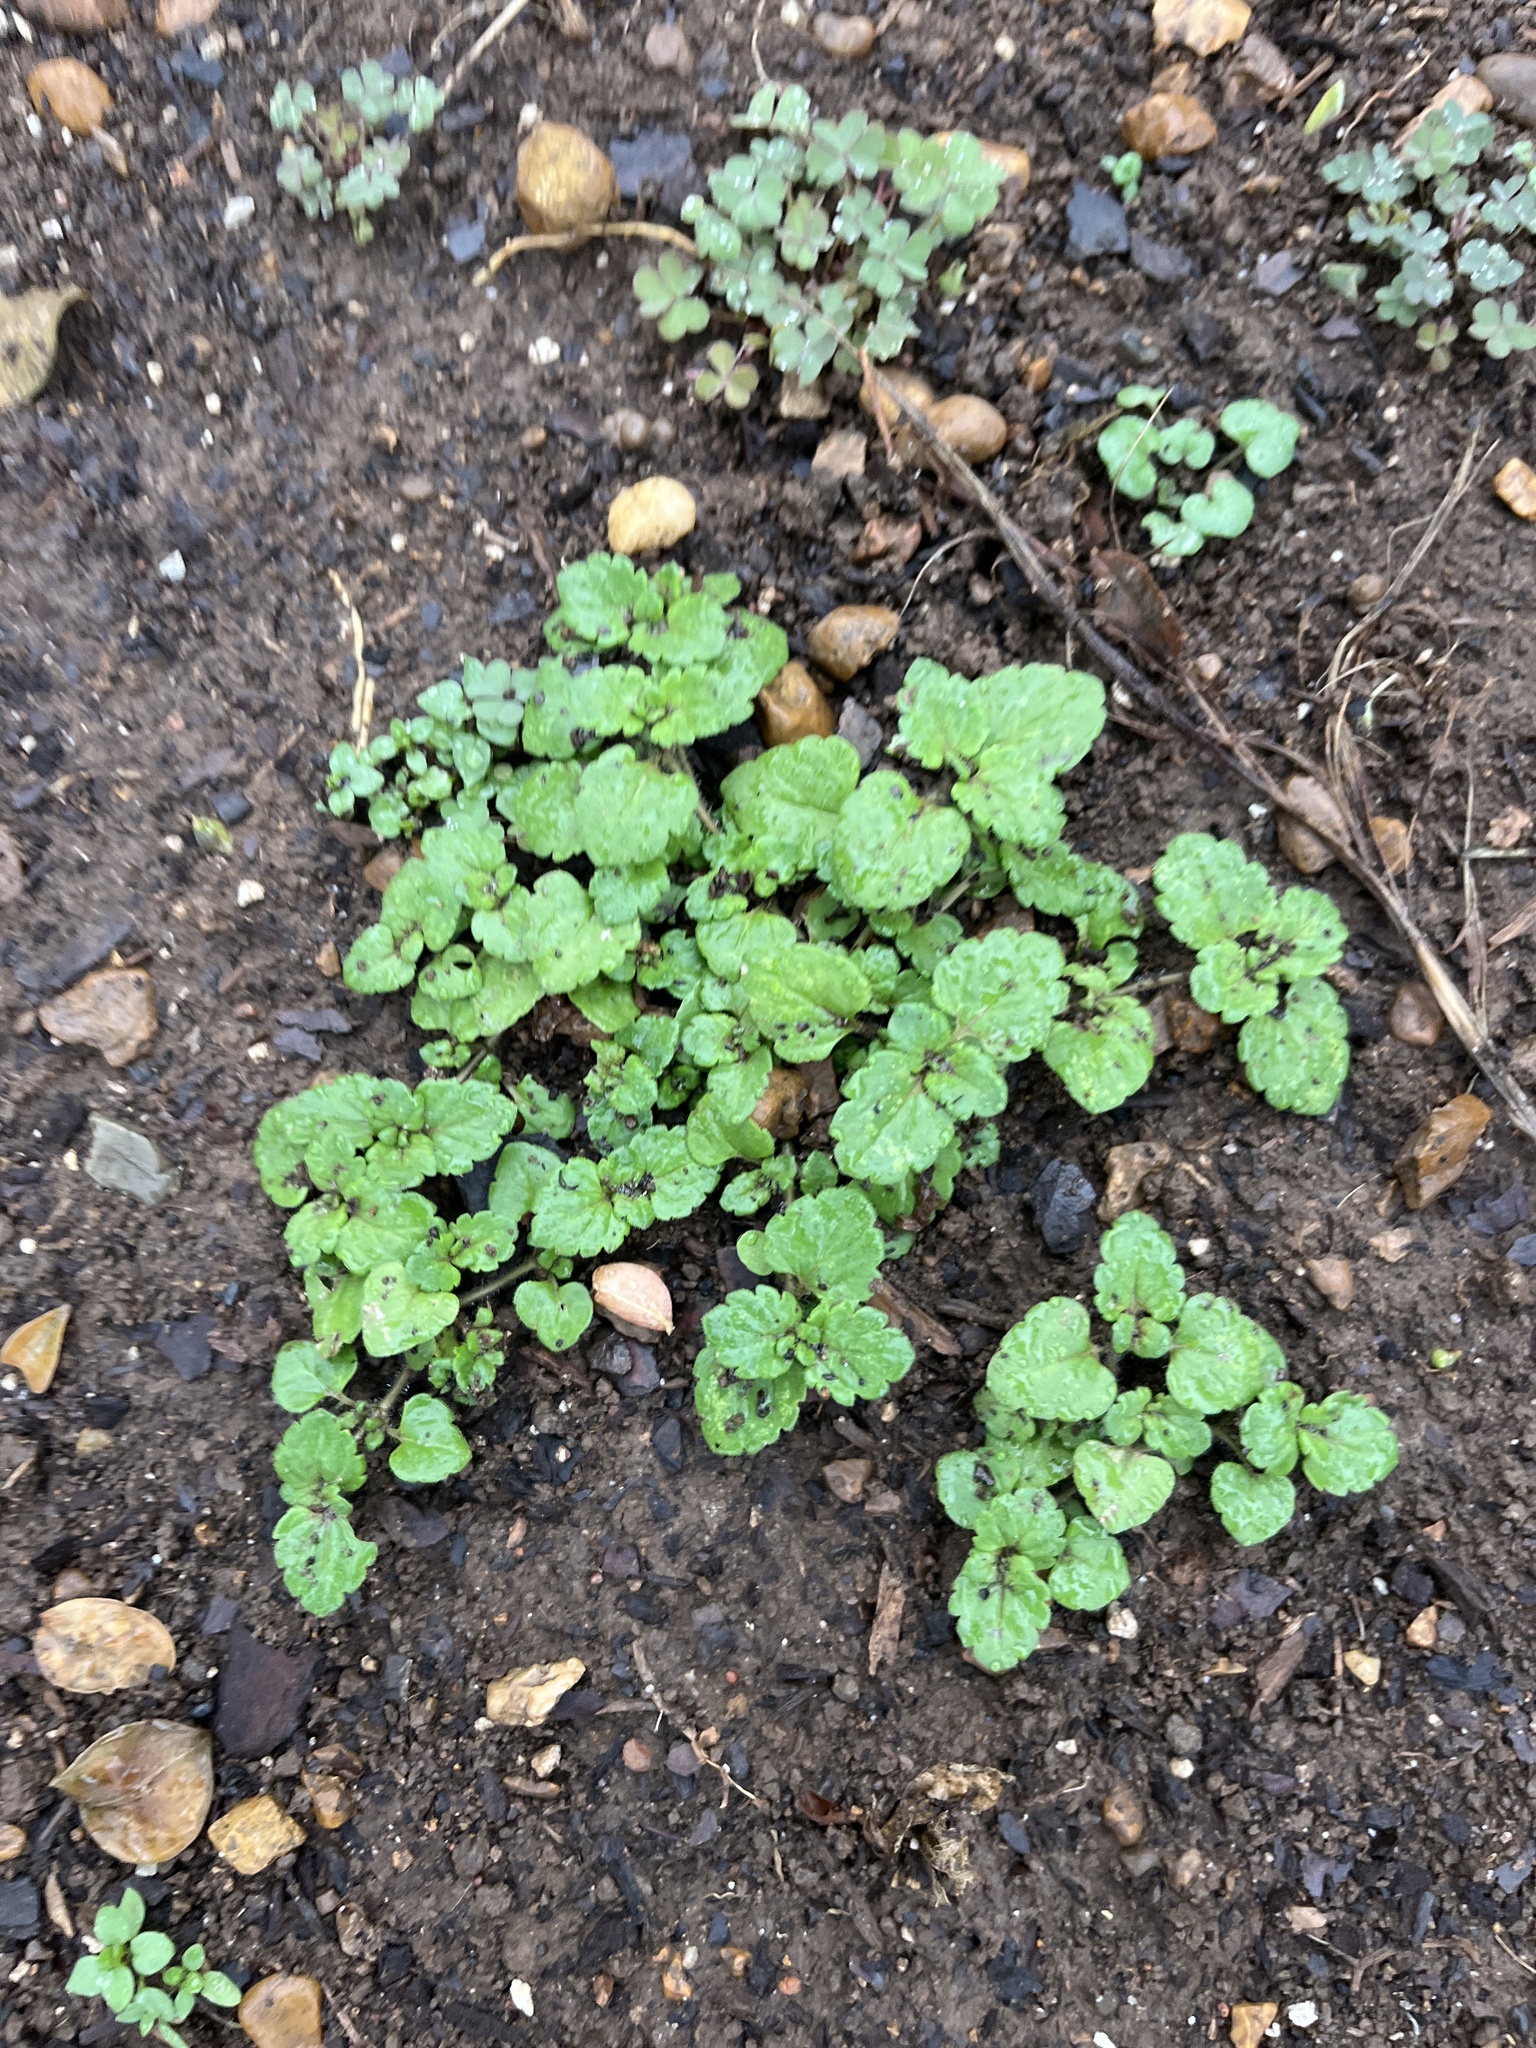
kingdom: Plantae
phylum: Tracheophyta
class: Magnoliopsida
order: Lamiales
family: Plantaginaceae
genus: Veronica
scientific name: Veronica persica
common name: Common field-speedwell
